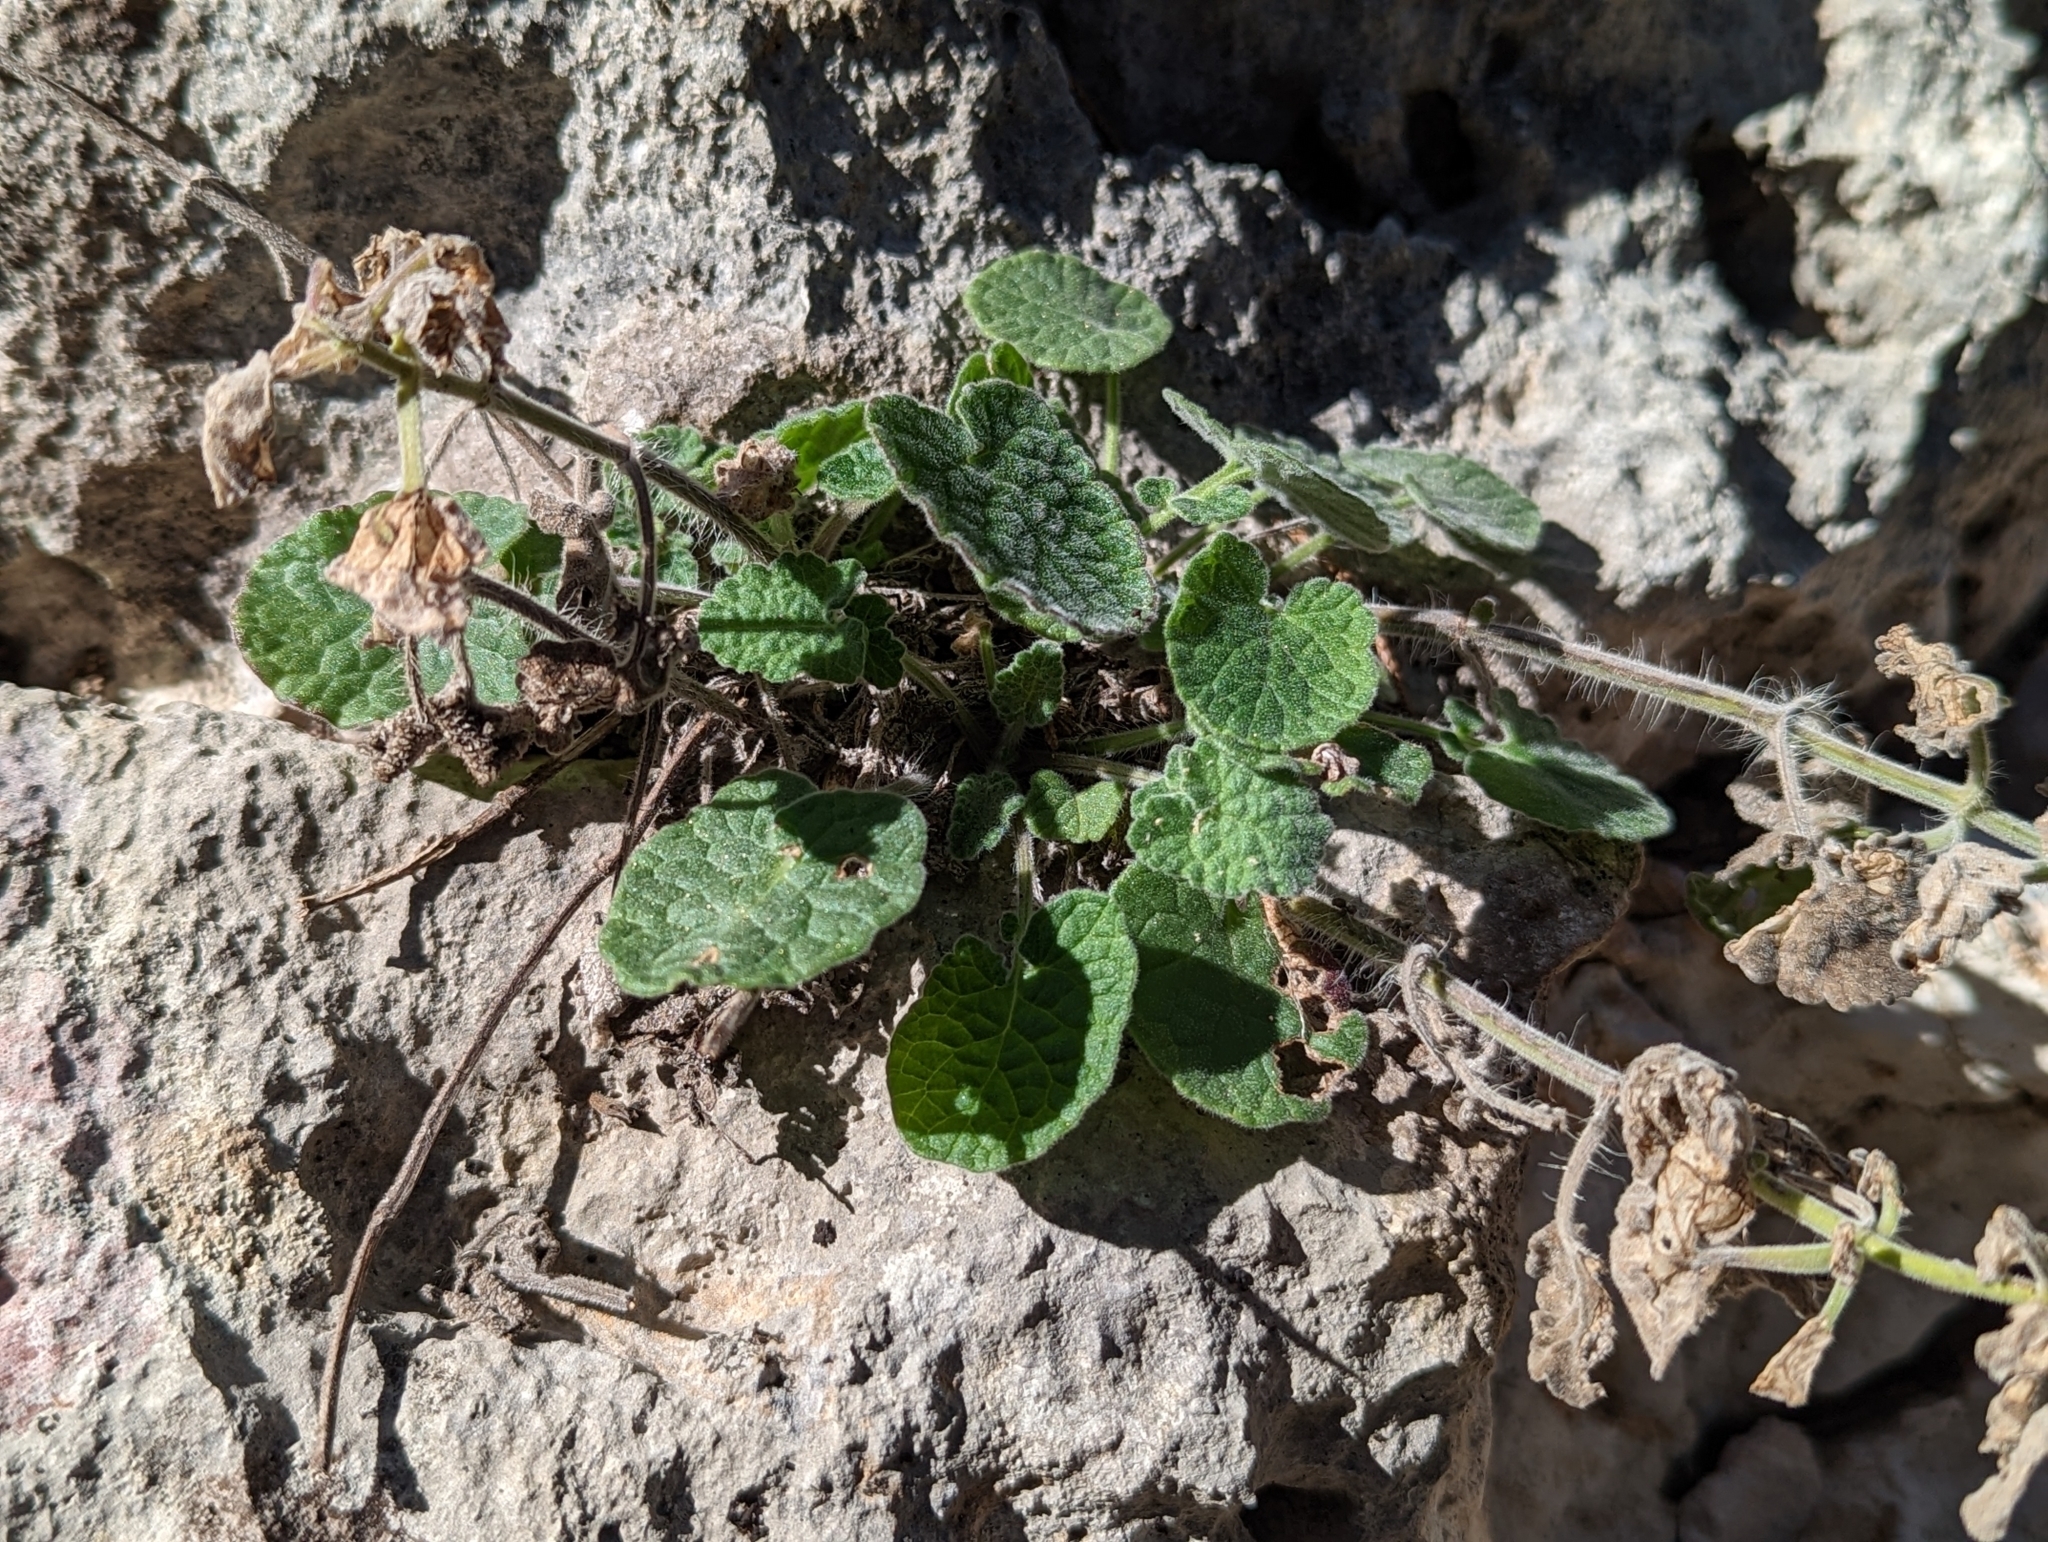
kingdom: Plantae
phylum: Tracheophyta
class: Magnoliopsida
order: Lamiales
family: Lamiaceae
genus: Salvia
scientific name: Salvia roemeriana
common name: Cedar sage
